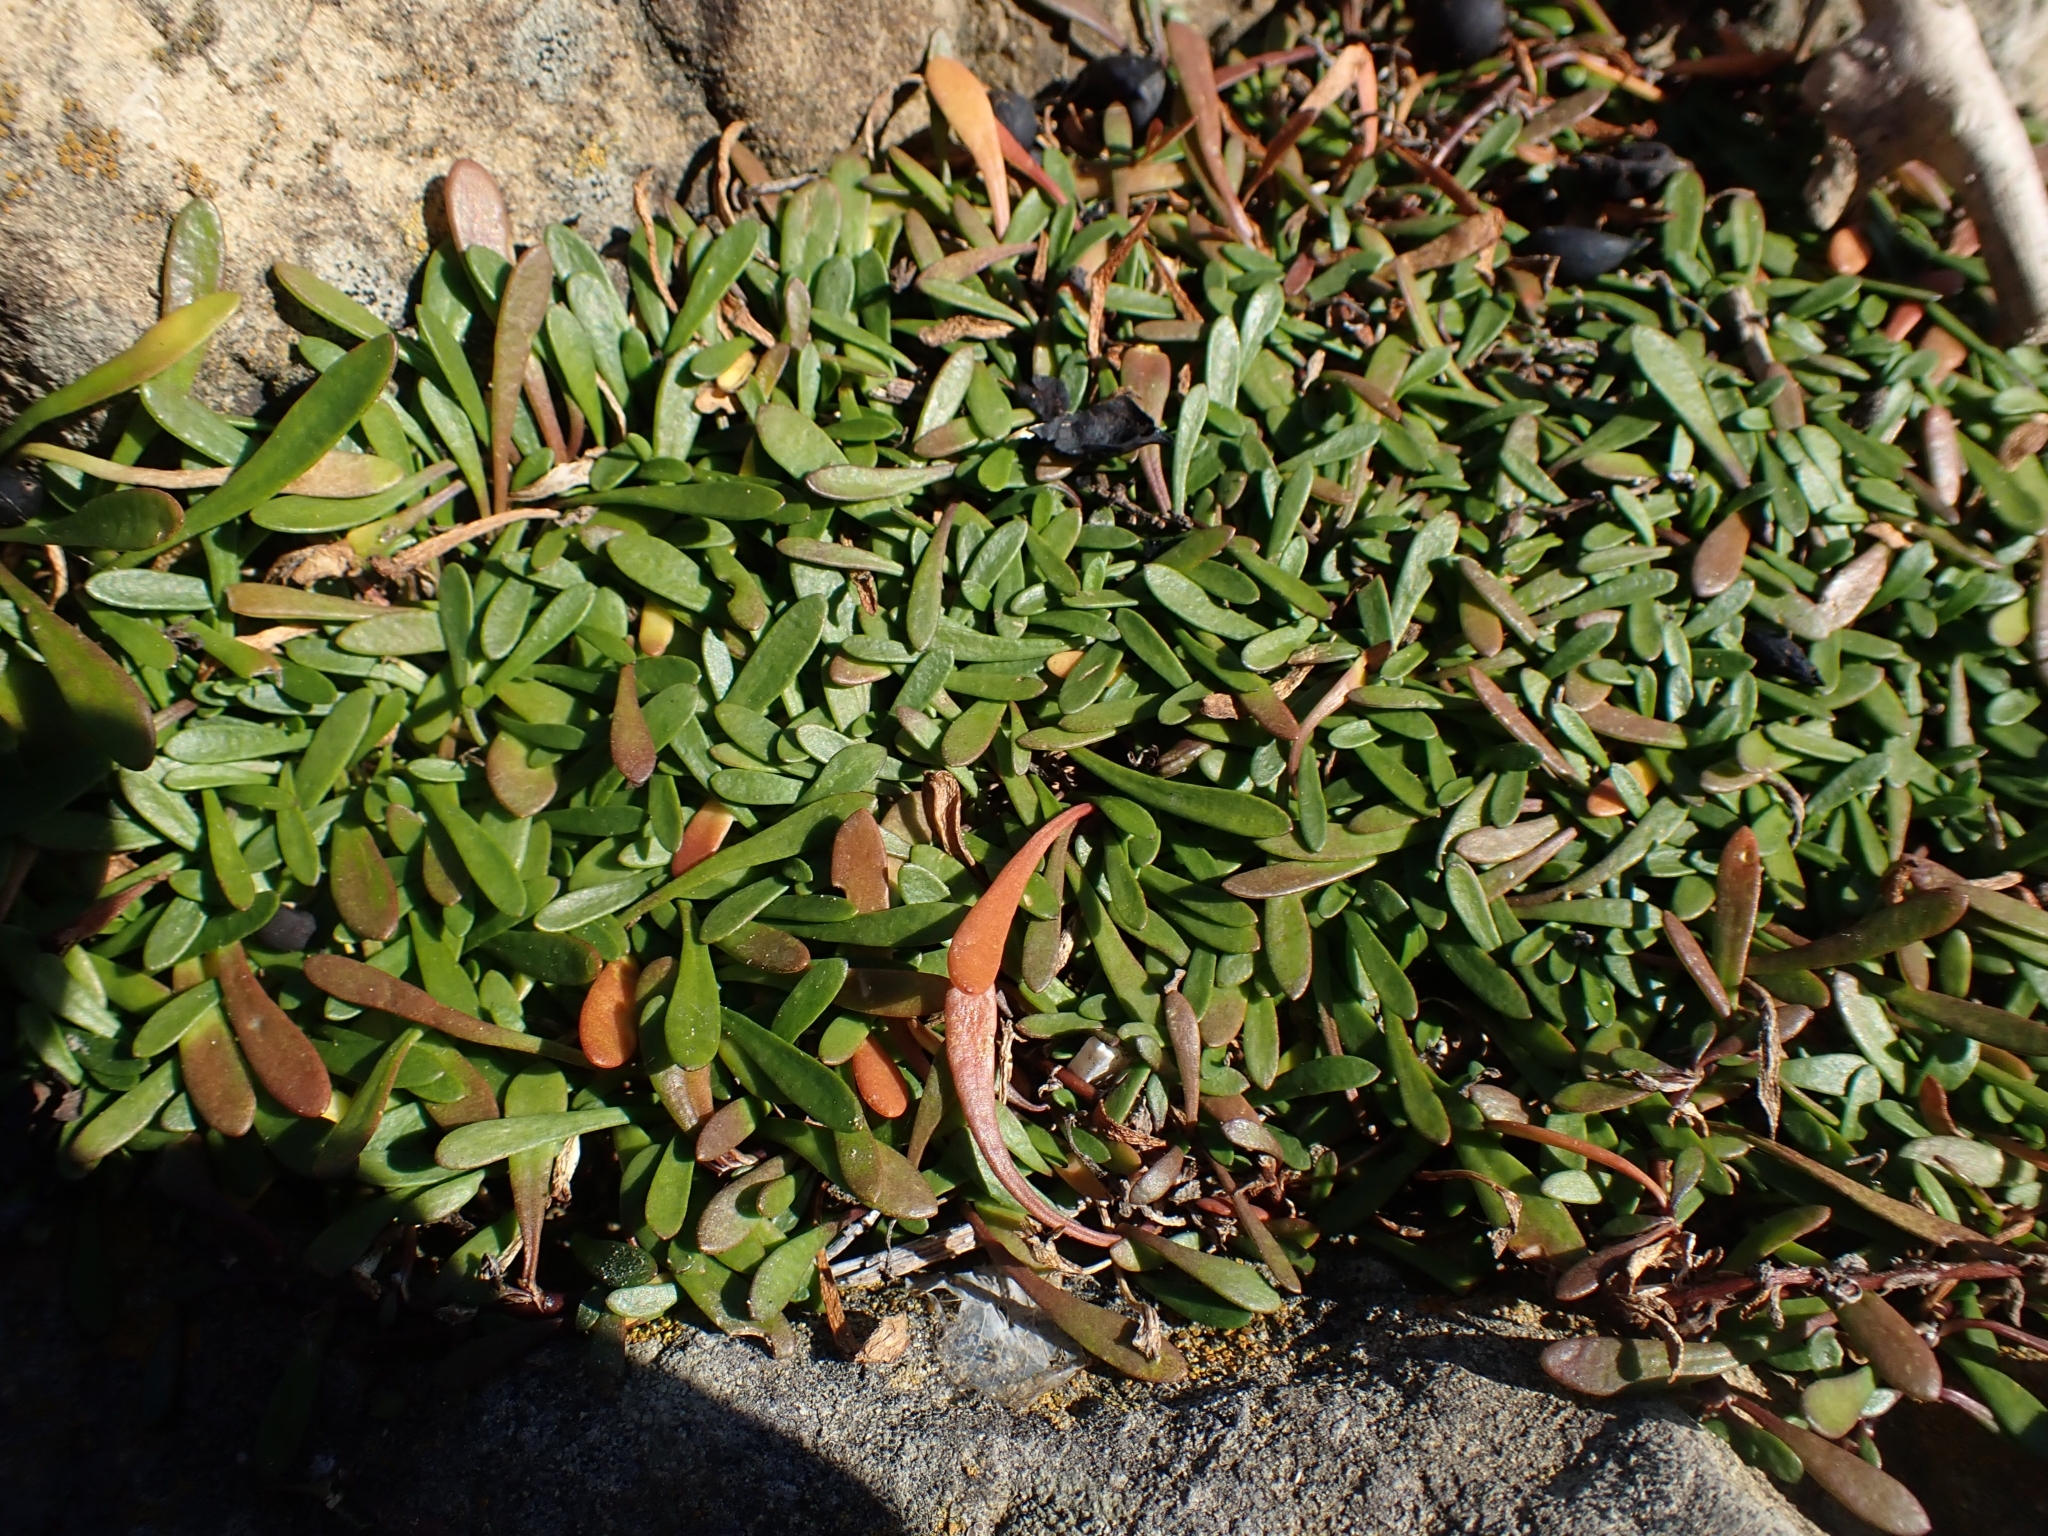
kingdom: Plantae
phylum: Tracheophyta
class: Magnoliopsida
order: Asterales
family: Goodeniaceae
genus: Goodenia
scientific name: Goodenia radicans
